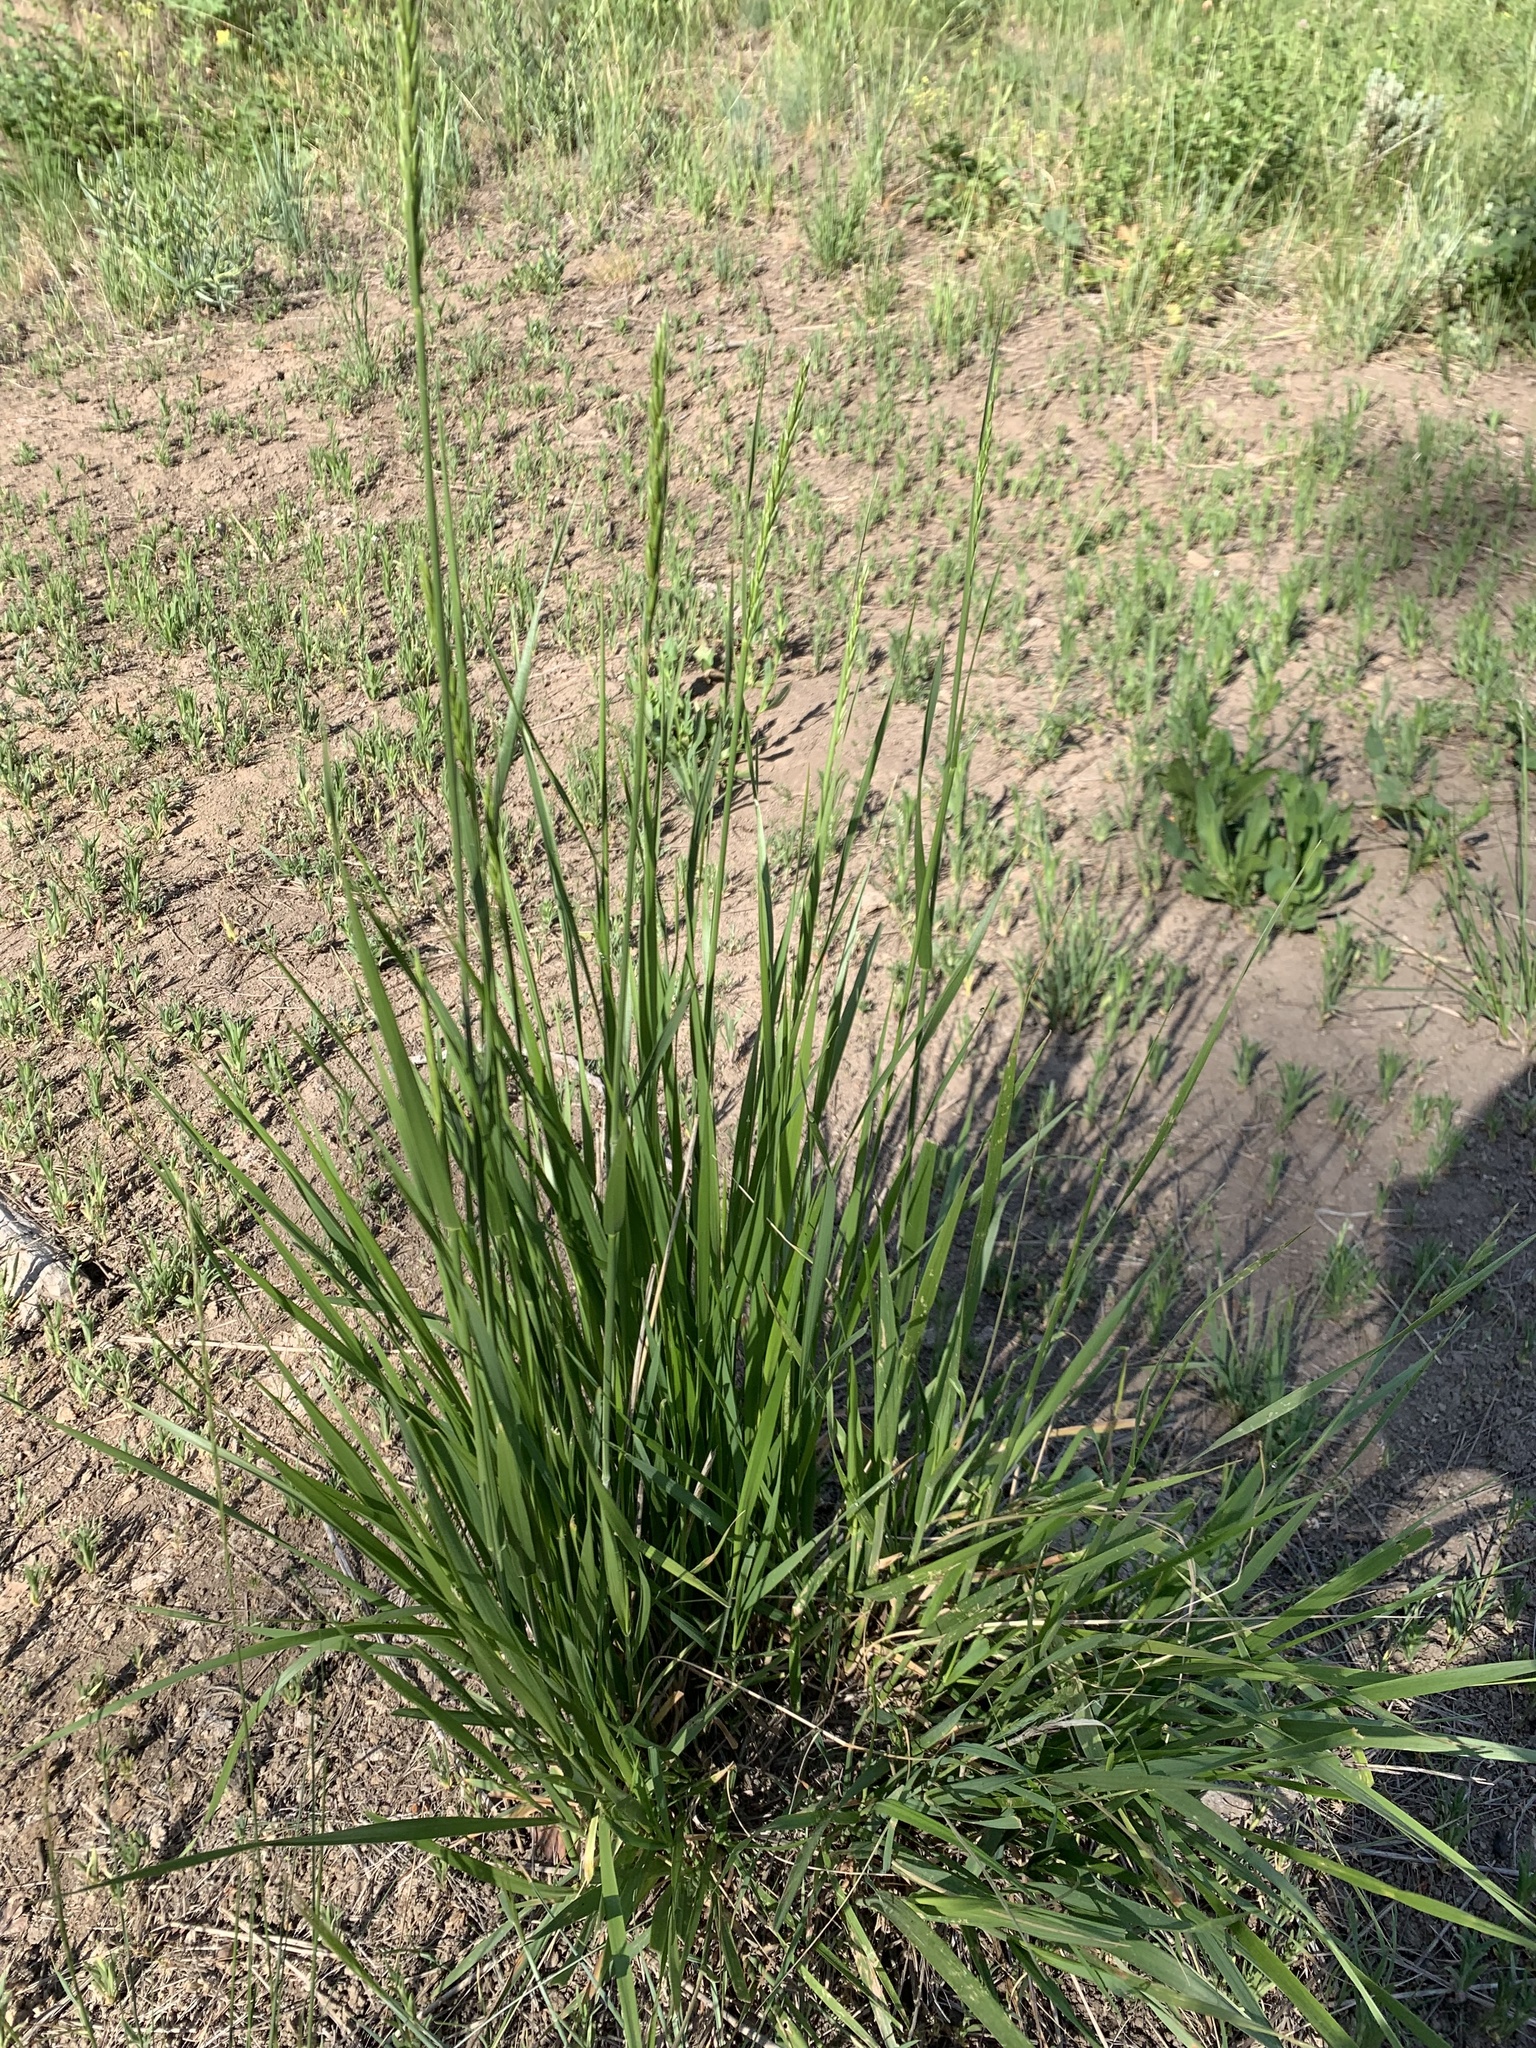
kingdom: Plantae
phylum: Tracheophyta
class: Liliopsida
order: Poales
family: Poaceae
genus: Leymus
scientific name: Leymus cinereus
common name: Basin wild rye
